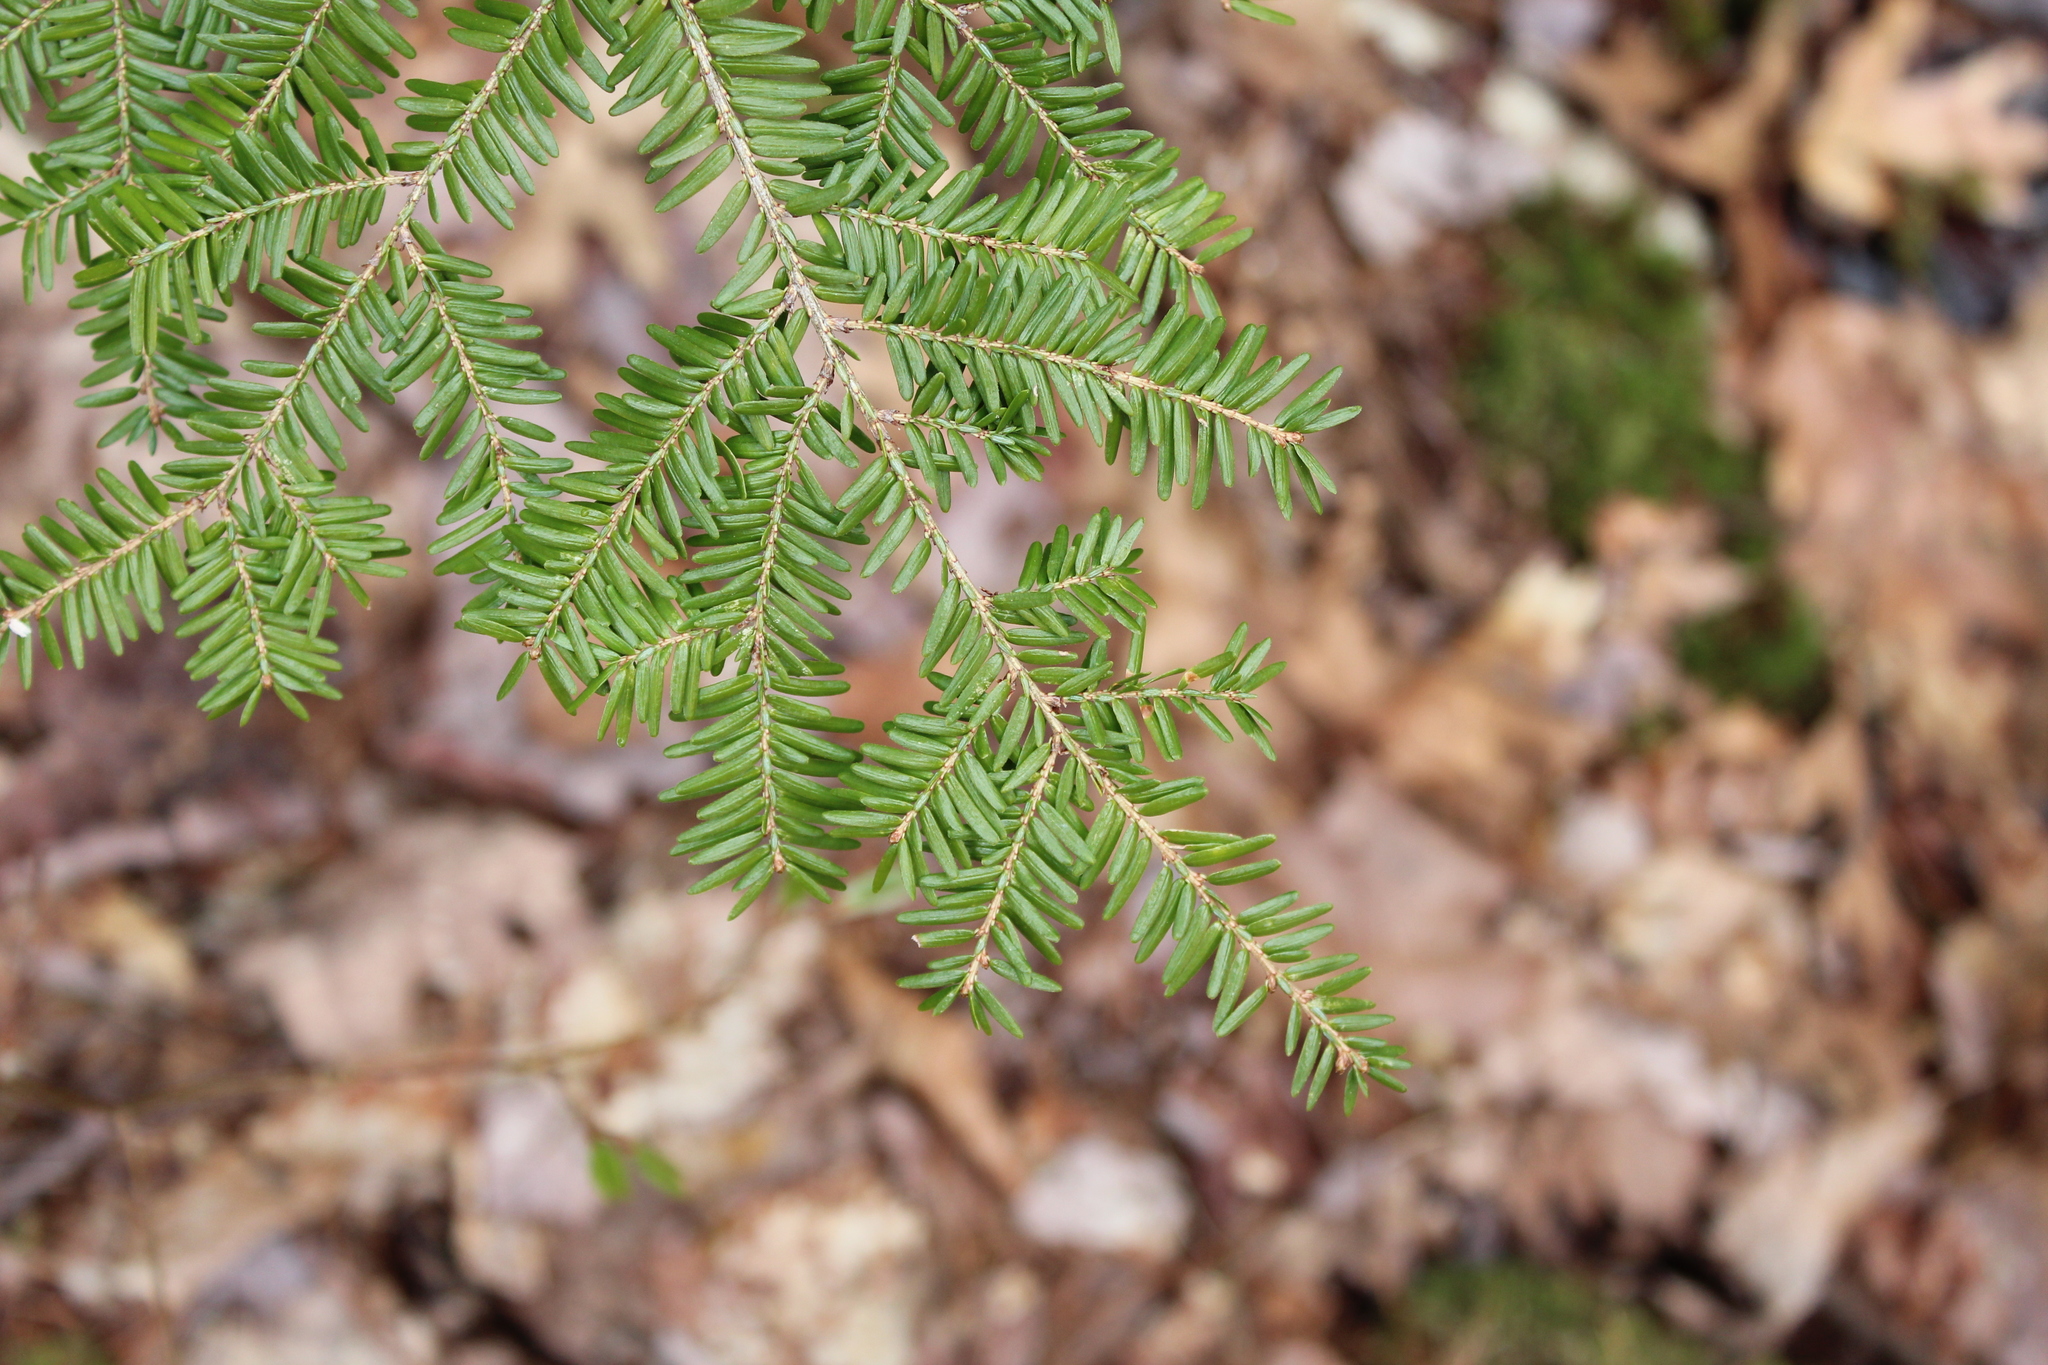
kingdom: Plantae
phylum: Tracheophyta
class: Pinopsida
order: Pinales
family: Pinaceae
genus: Tsuga
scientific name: Tsuga canadensis
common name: Eastern hemlock
